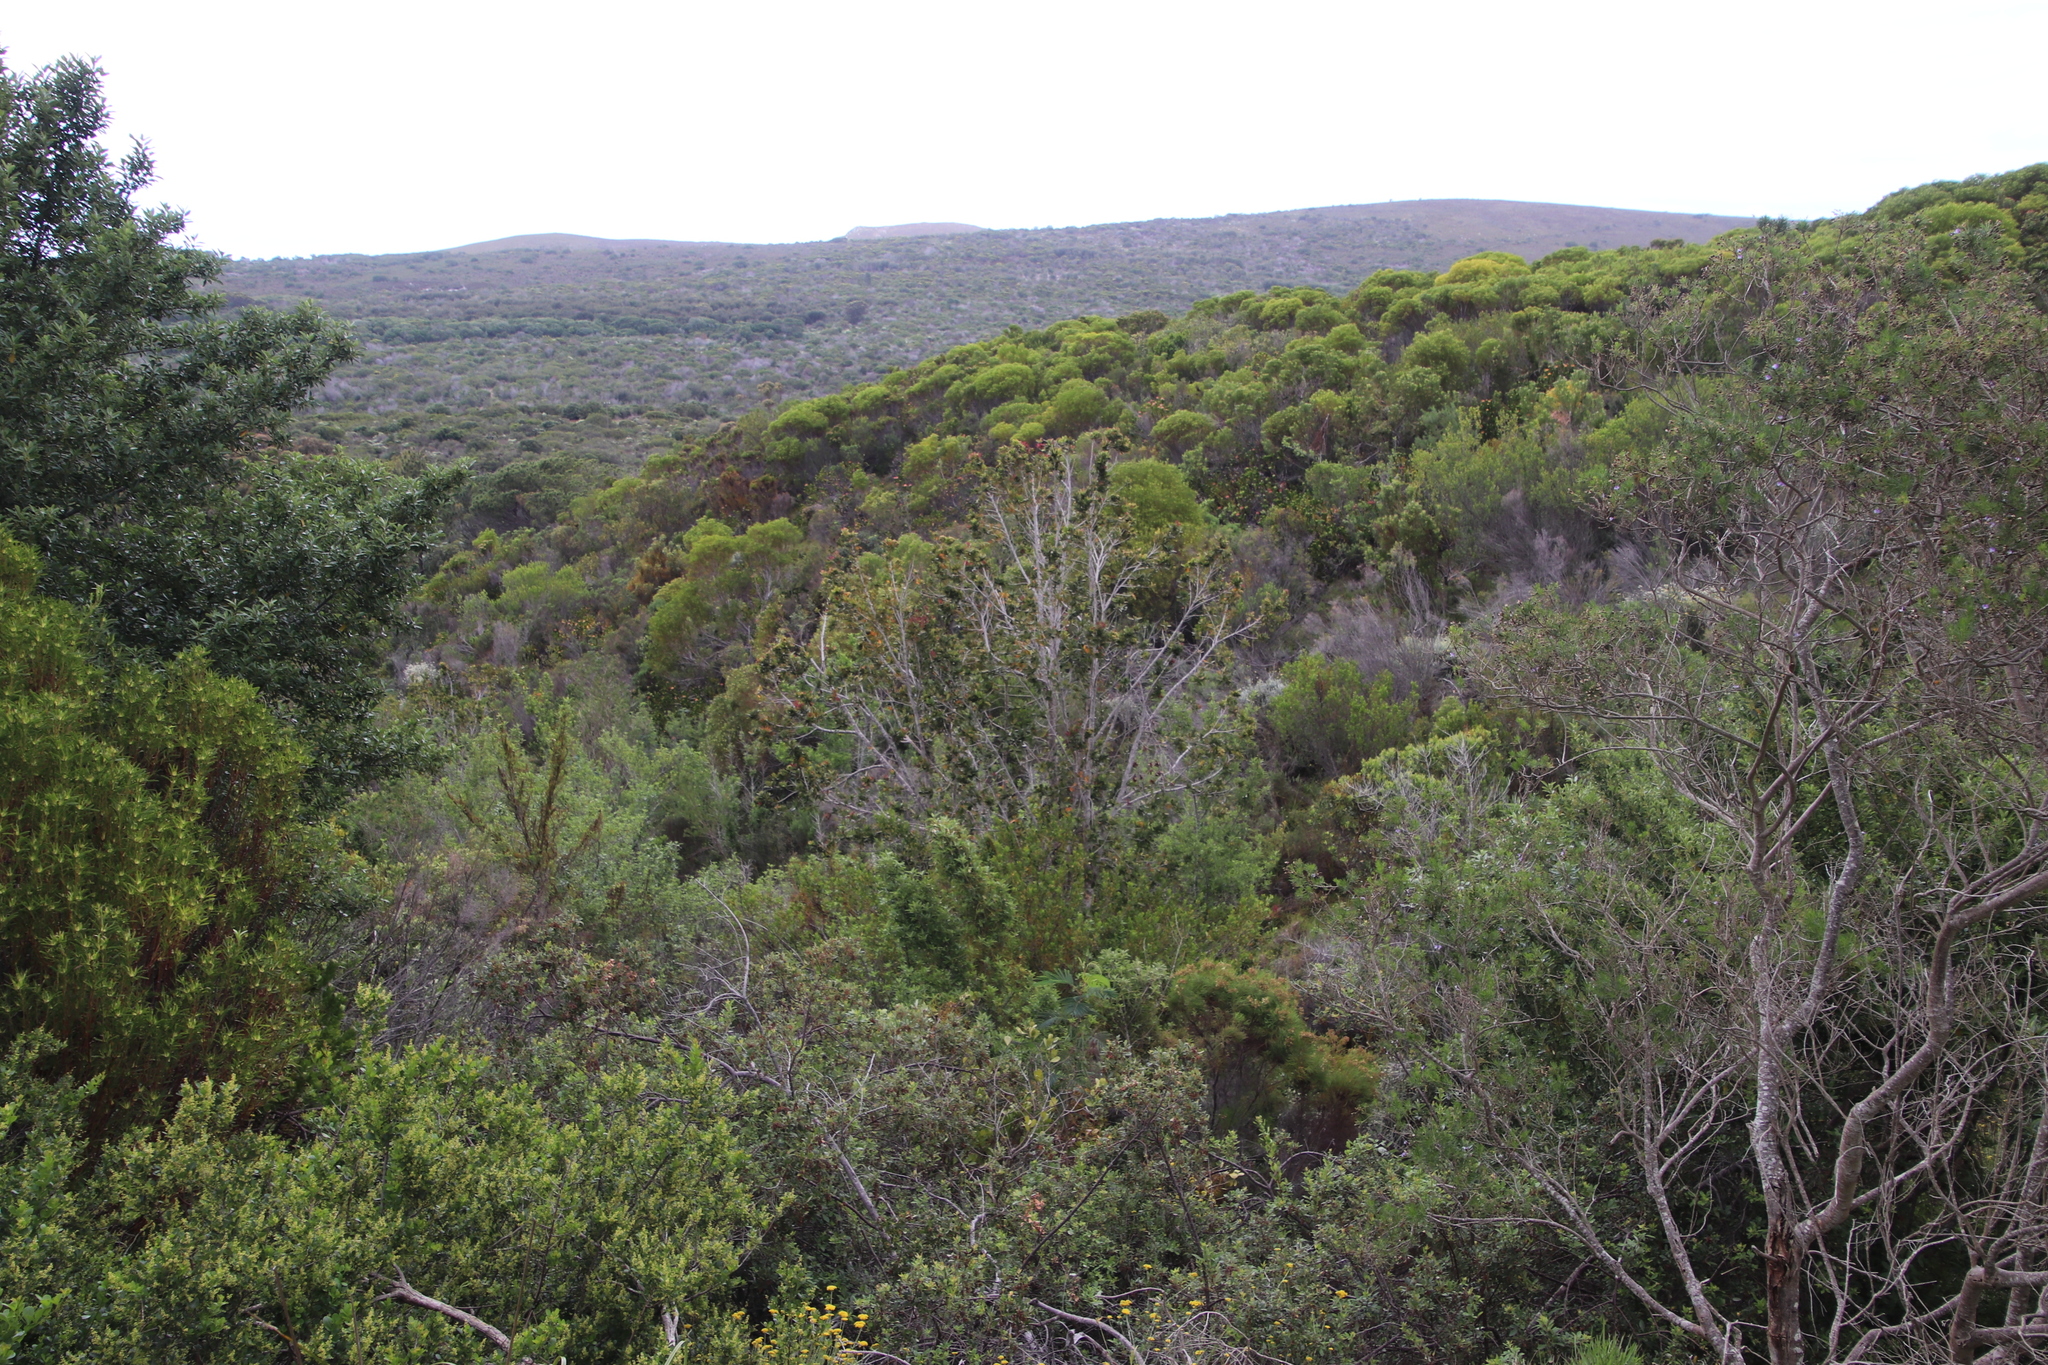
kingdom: Plantae
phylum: Tracheophyta
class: Magnoliopsida
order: Myrtales
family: Myrtaceae
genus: Syzygium
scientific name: Syzygium cordatum
